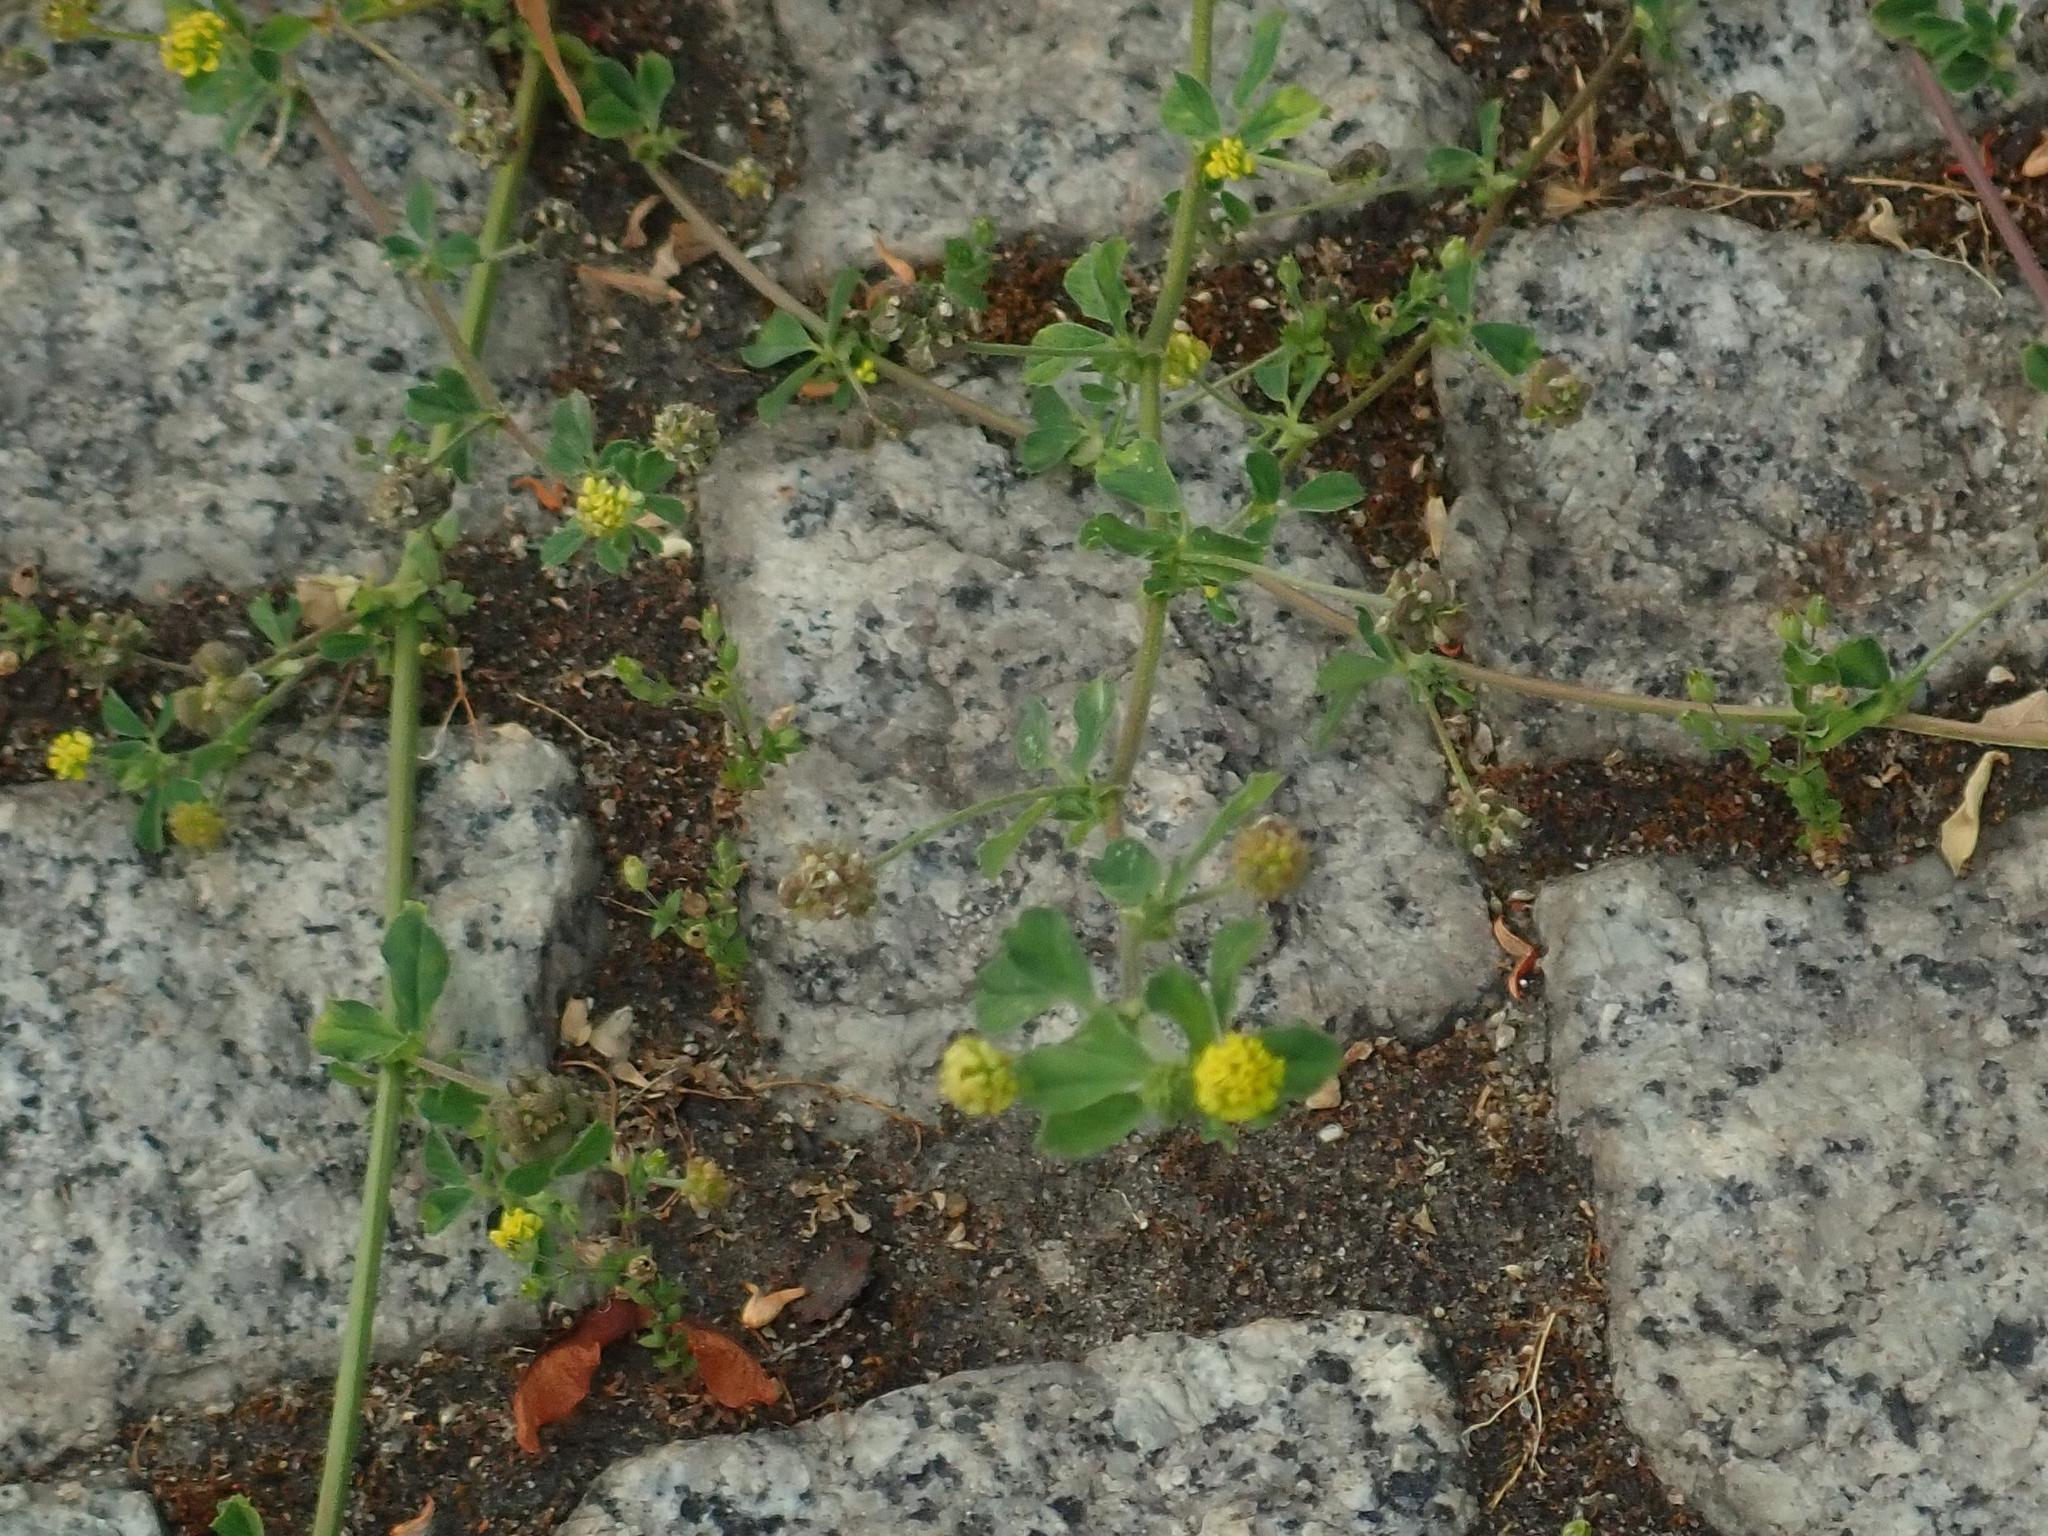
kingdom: Plantae
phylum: Tracheophyta
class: Magnoliopsida
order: Fabales
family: Fabaceae
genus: Medicago
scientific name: Medicago lupulina
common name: Black medick
